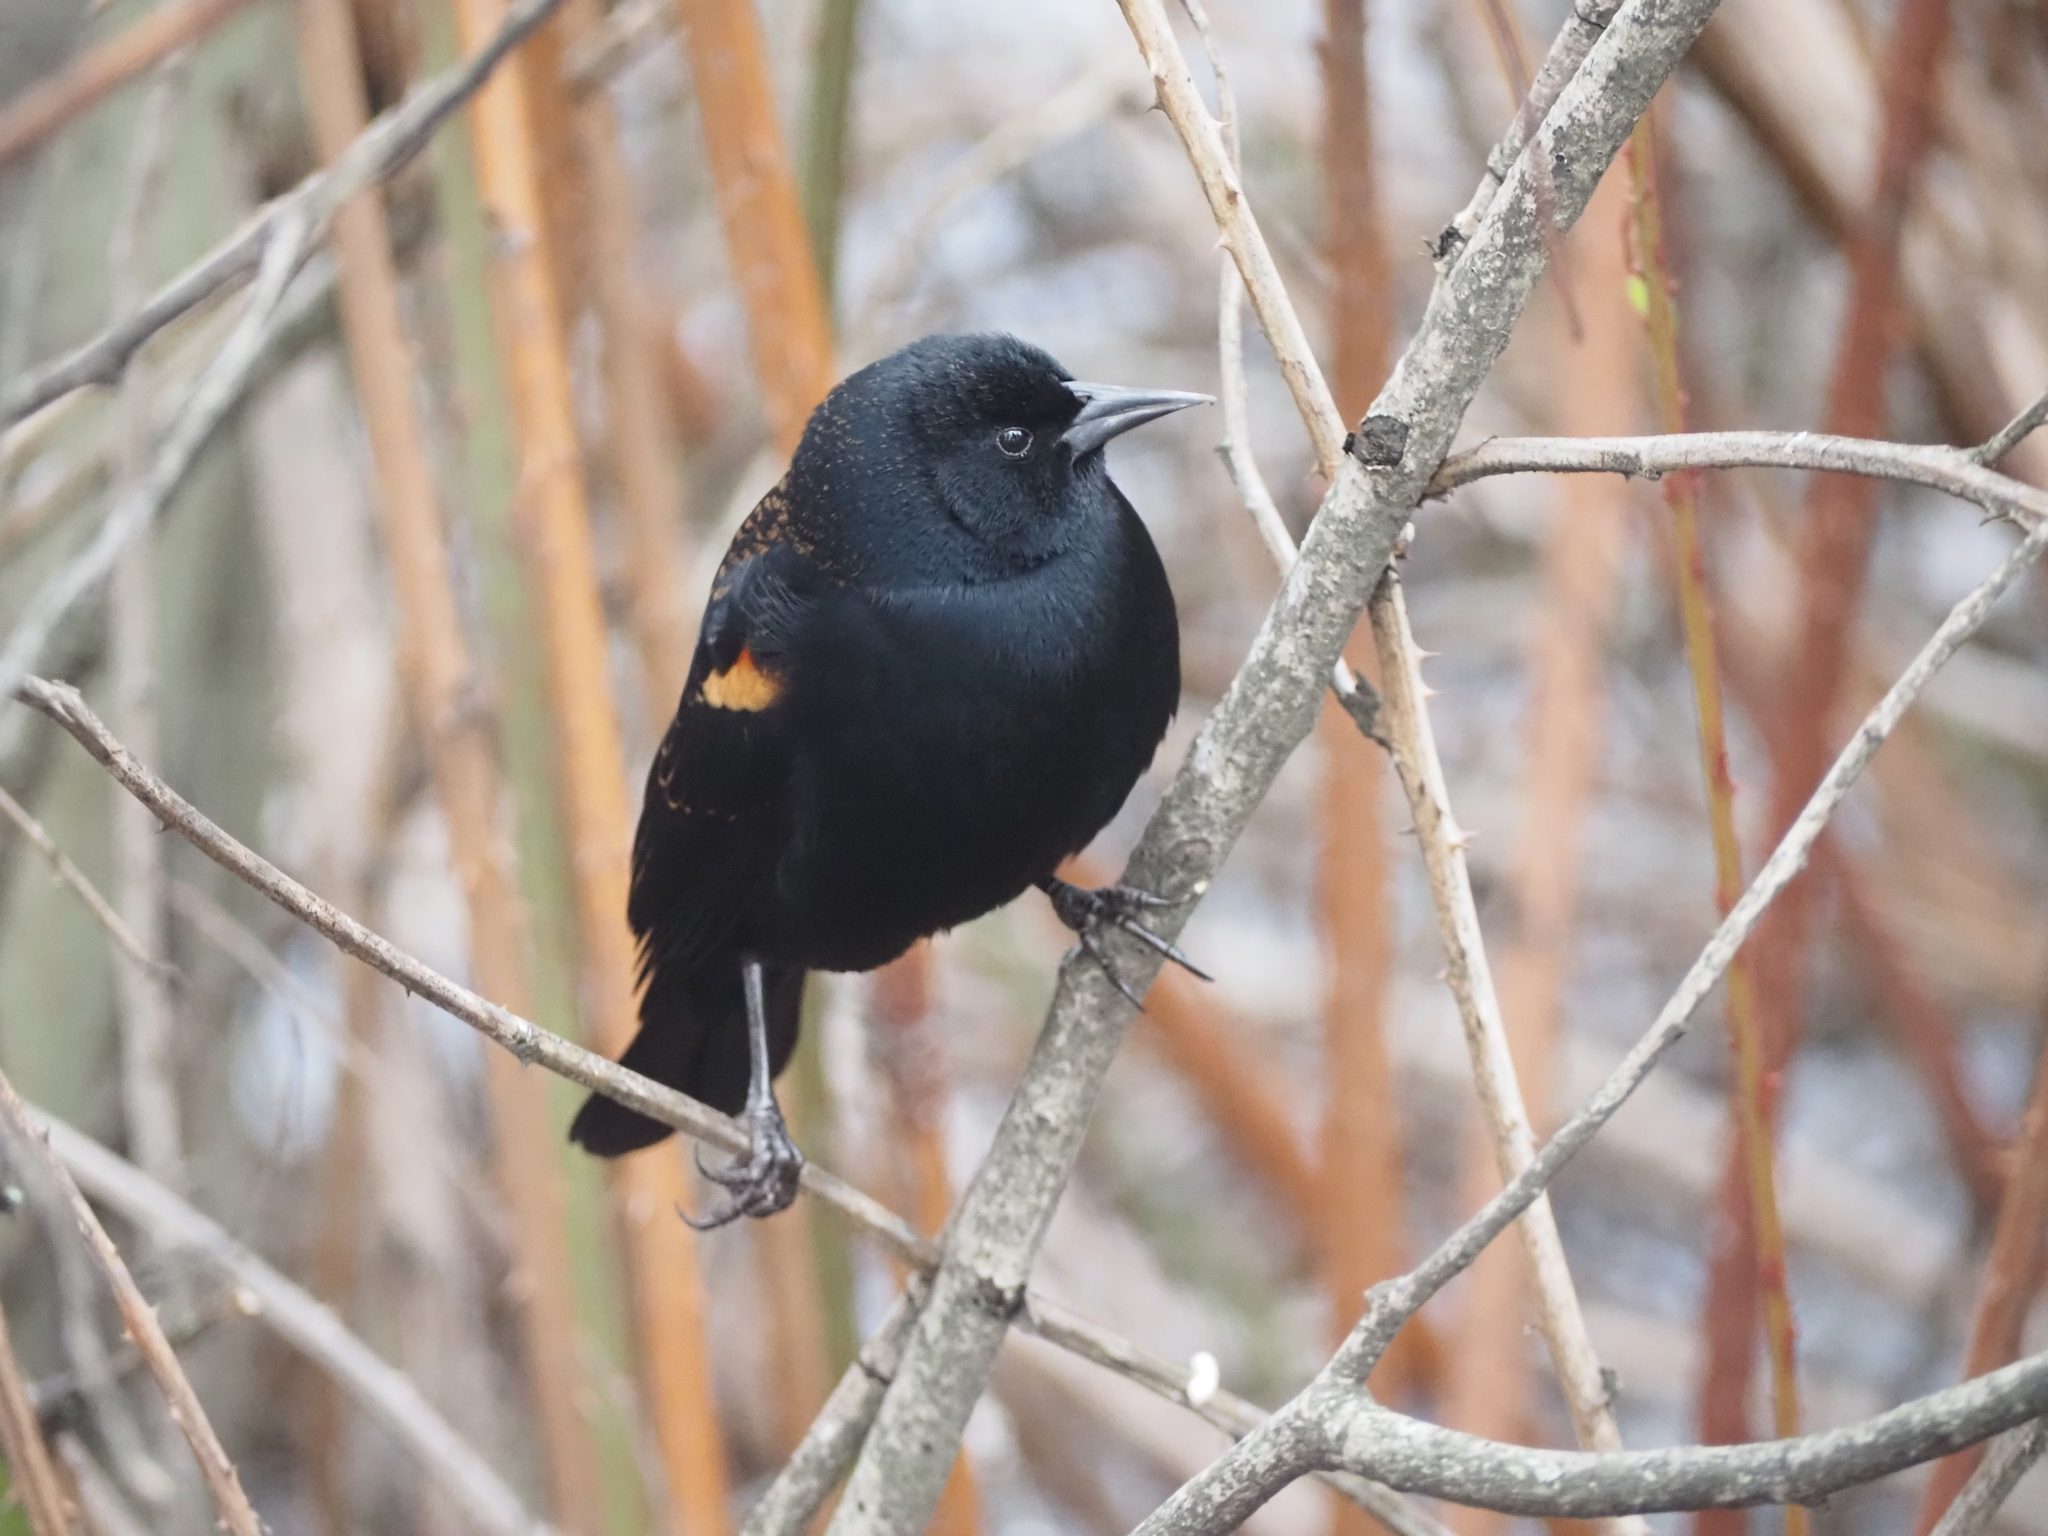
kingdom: Animalia
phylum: Chordata
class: Aves
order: Passeriformes
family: Icteridae
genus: Agelaius
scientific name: Agelaius phoeniceus
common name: Red-winged blackbird
